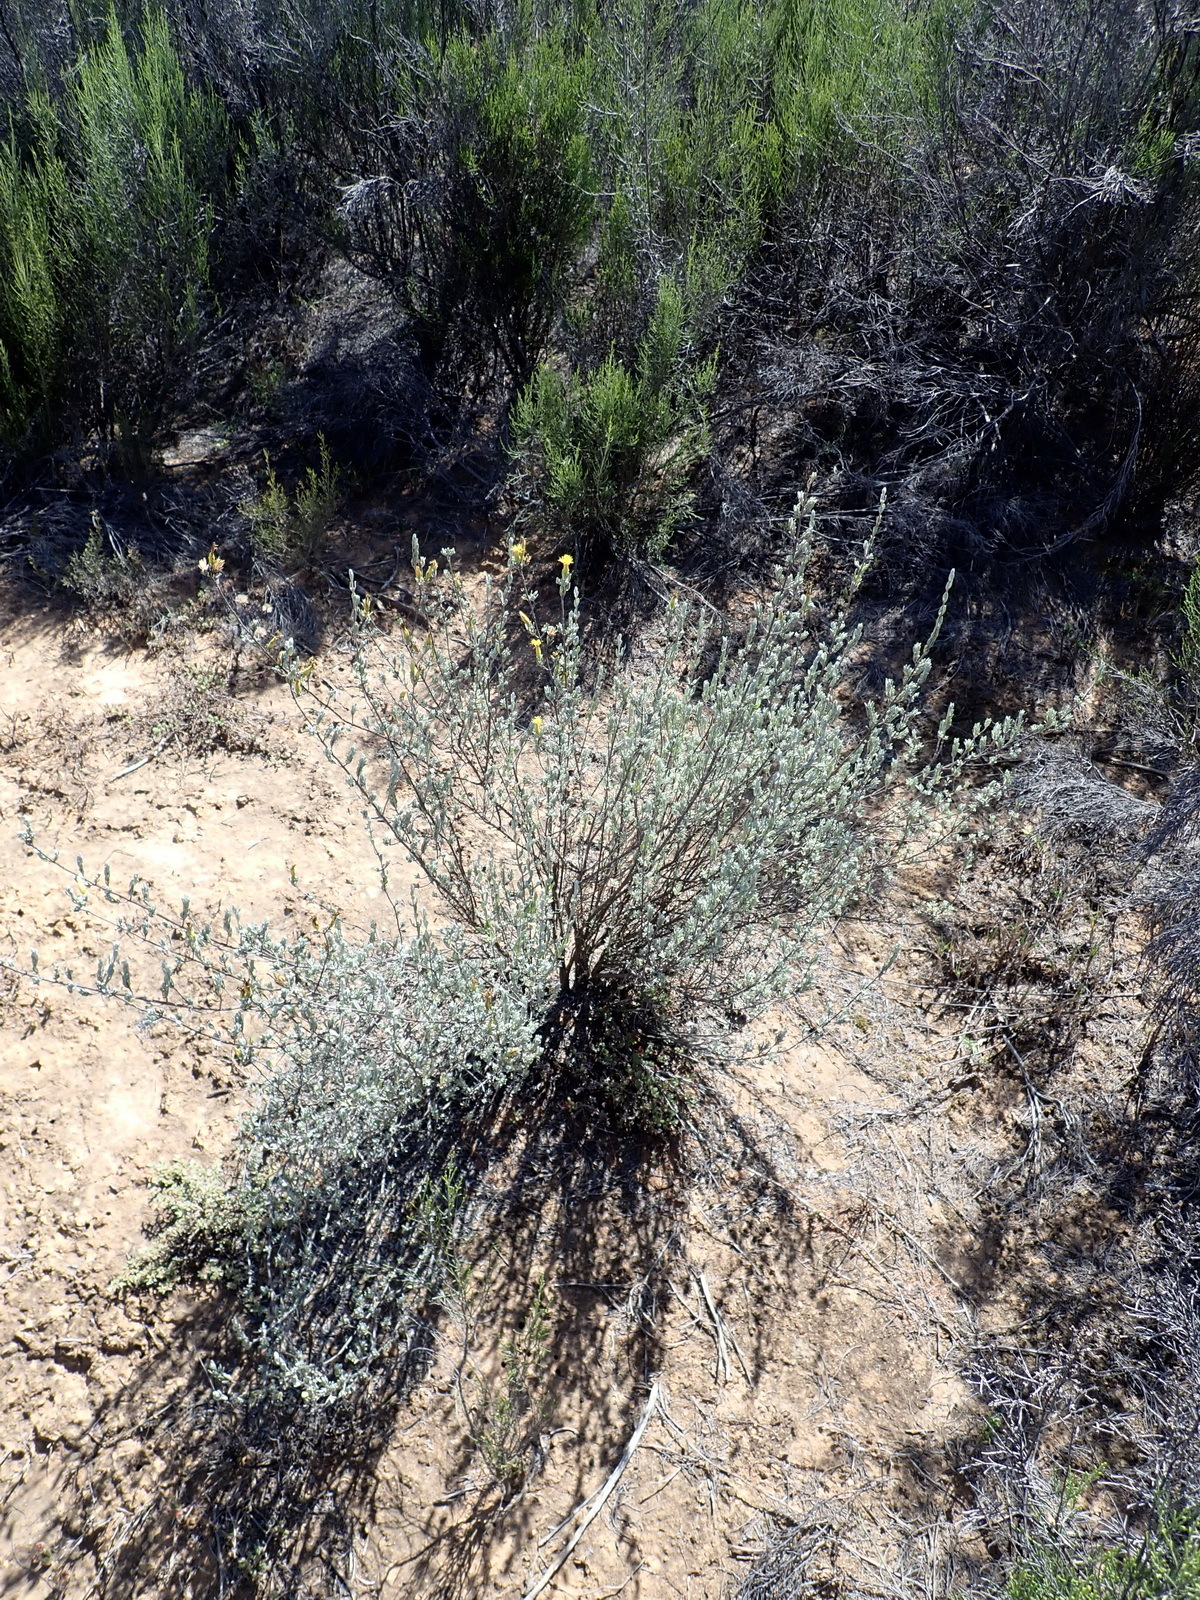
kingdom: Plantae
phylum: Tracheophyta
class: Magnoliopsida
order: Asterales
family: Asteraceae
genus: Pteronia
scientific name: Pteronia incana
